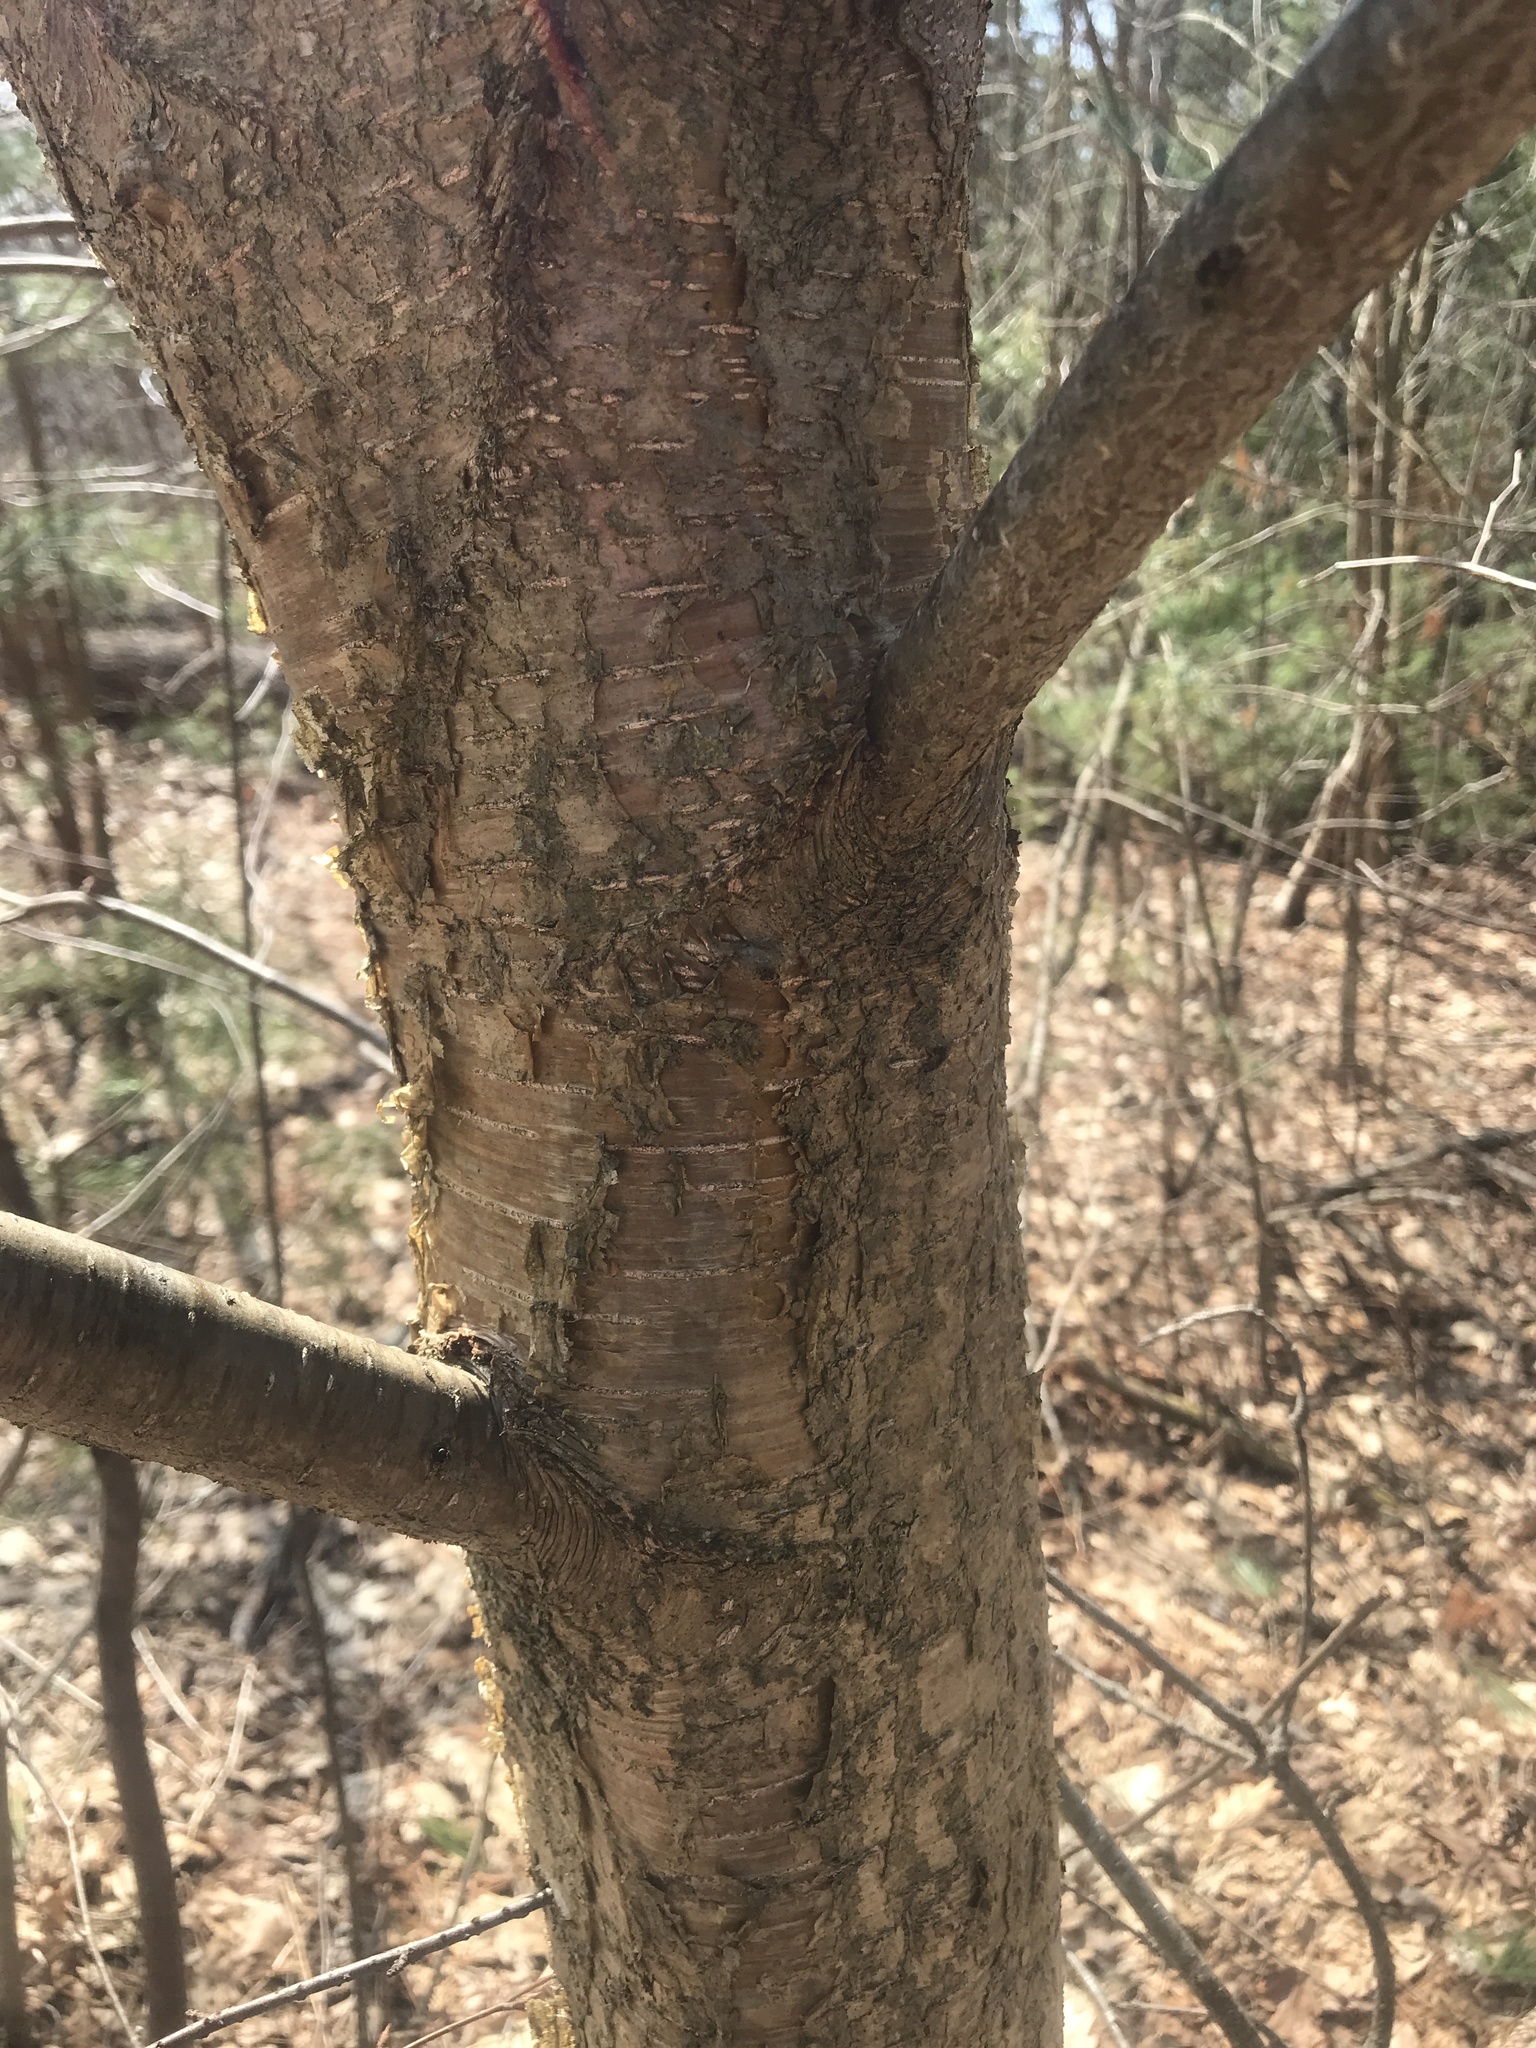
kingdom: Plantae
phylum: Tracheophyta
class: Magnoliopsida
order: Fagales
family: Betulaceae
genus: Betula
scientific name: Betula alleghaniensis
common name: Yellow birch
